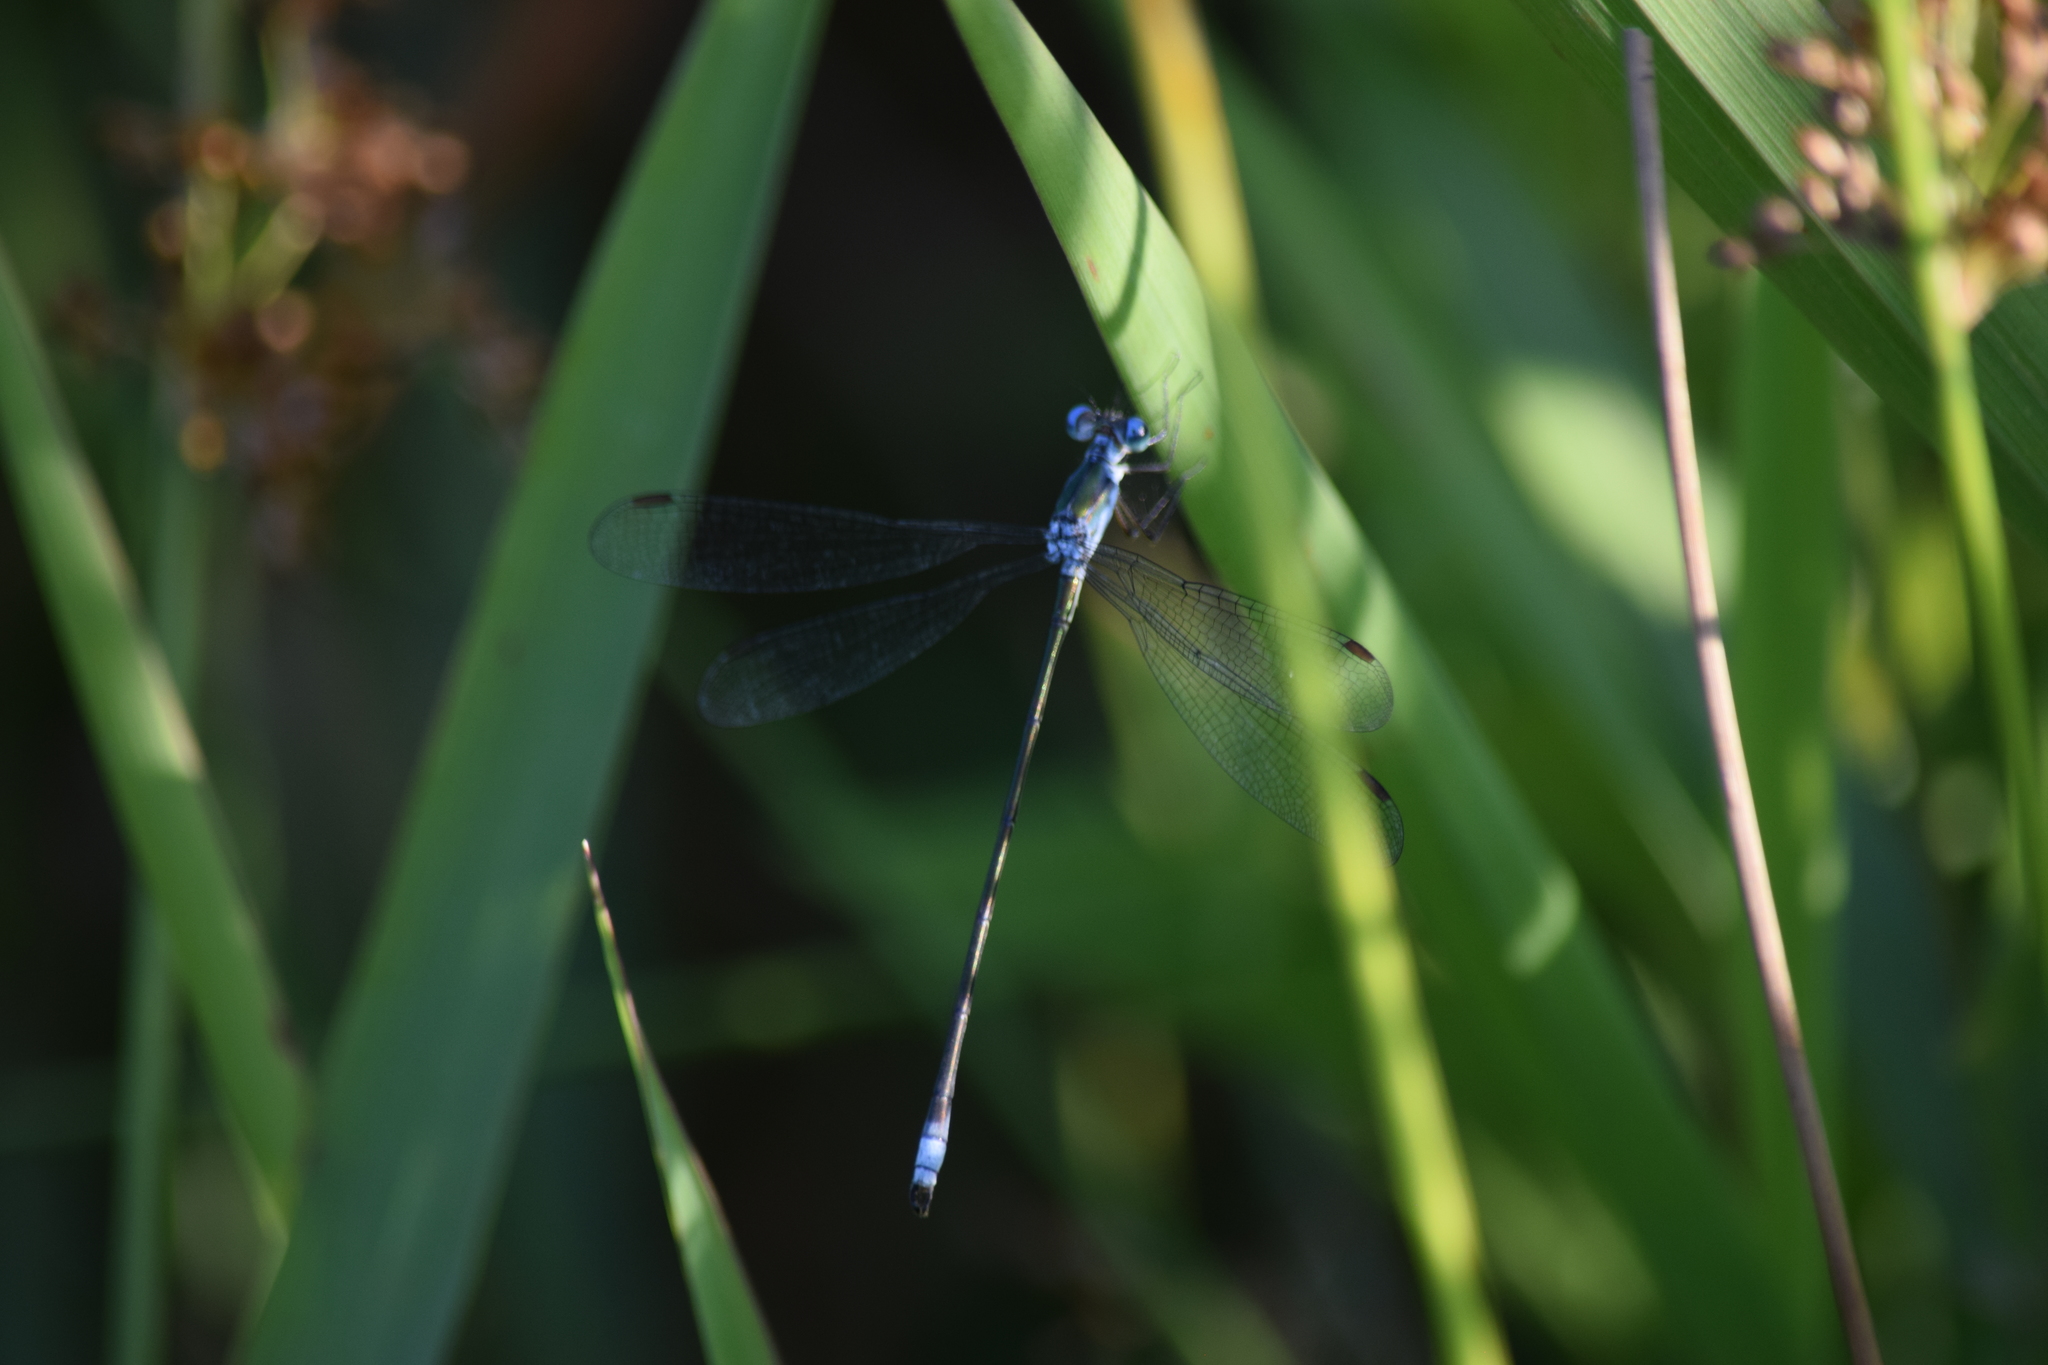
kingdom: Animalia
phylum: Arthropoda
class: Insecta
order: Odonata
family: Lestidae
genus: Lestes
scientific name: Lestes vigilax
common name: Swamp spreadwing
